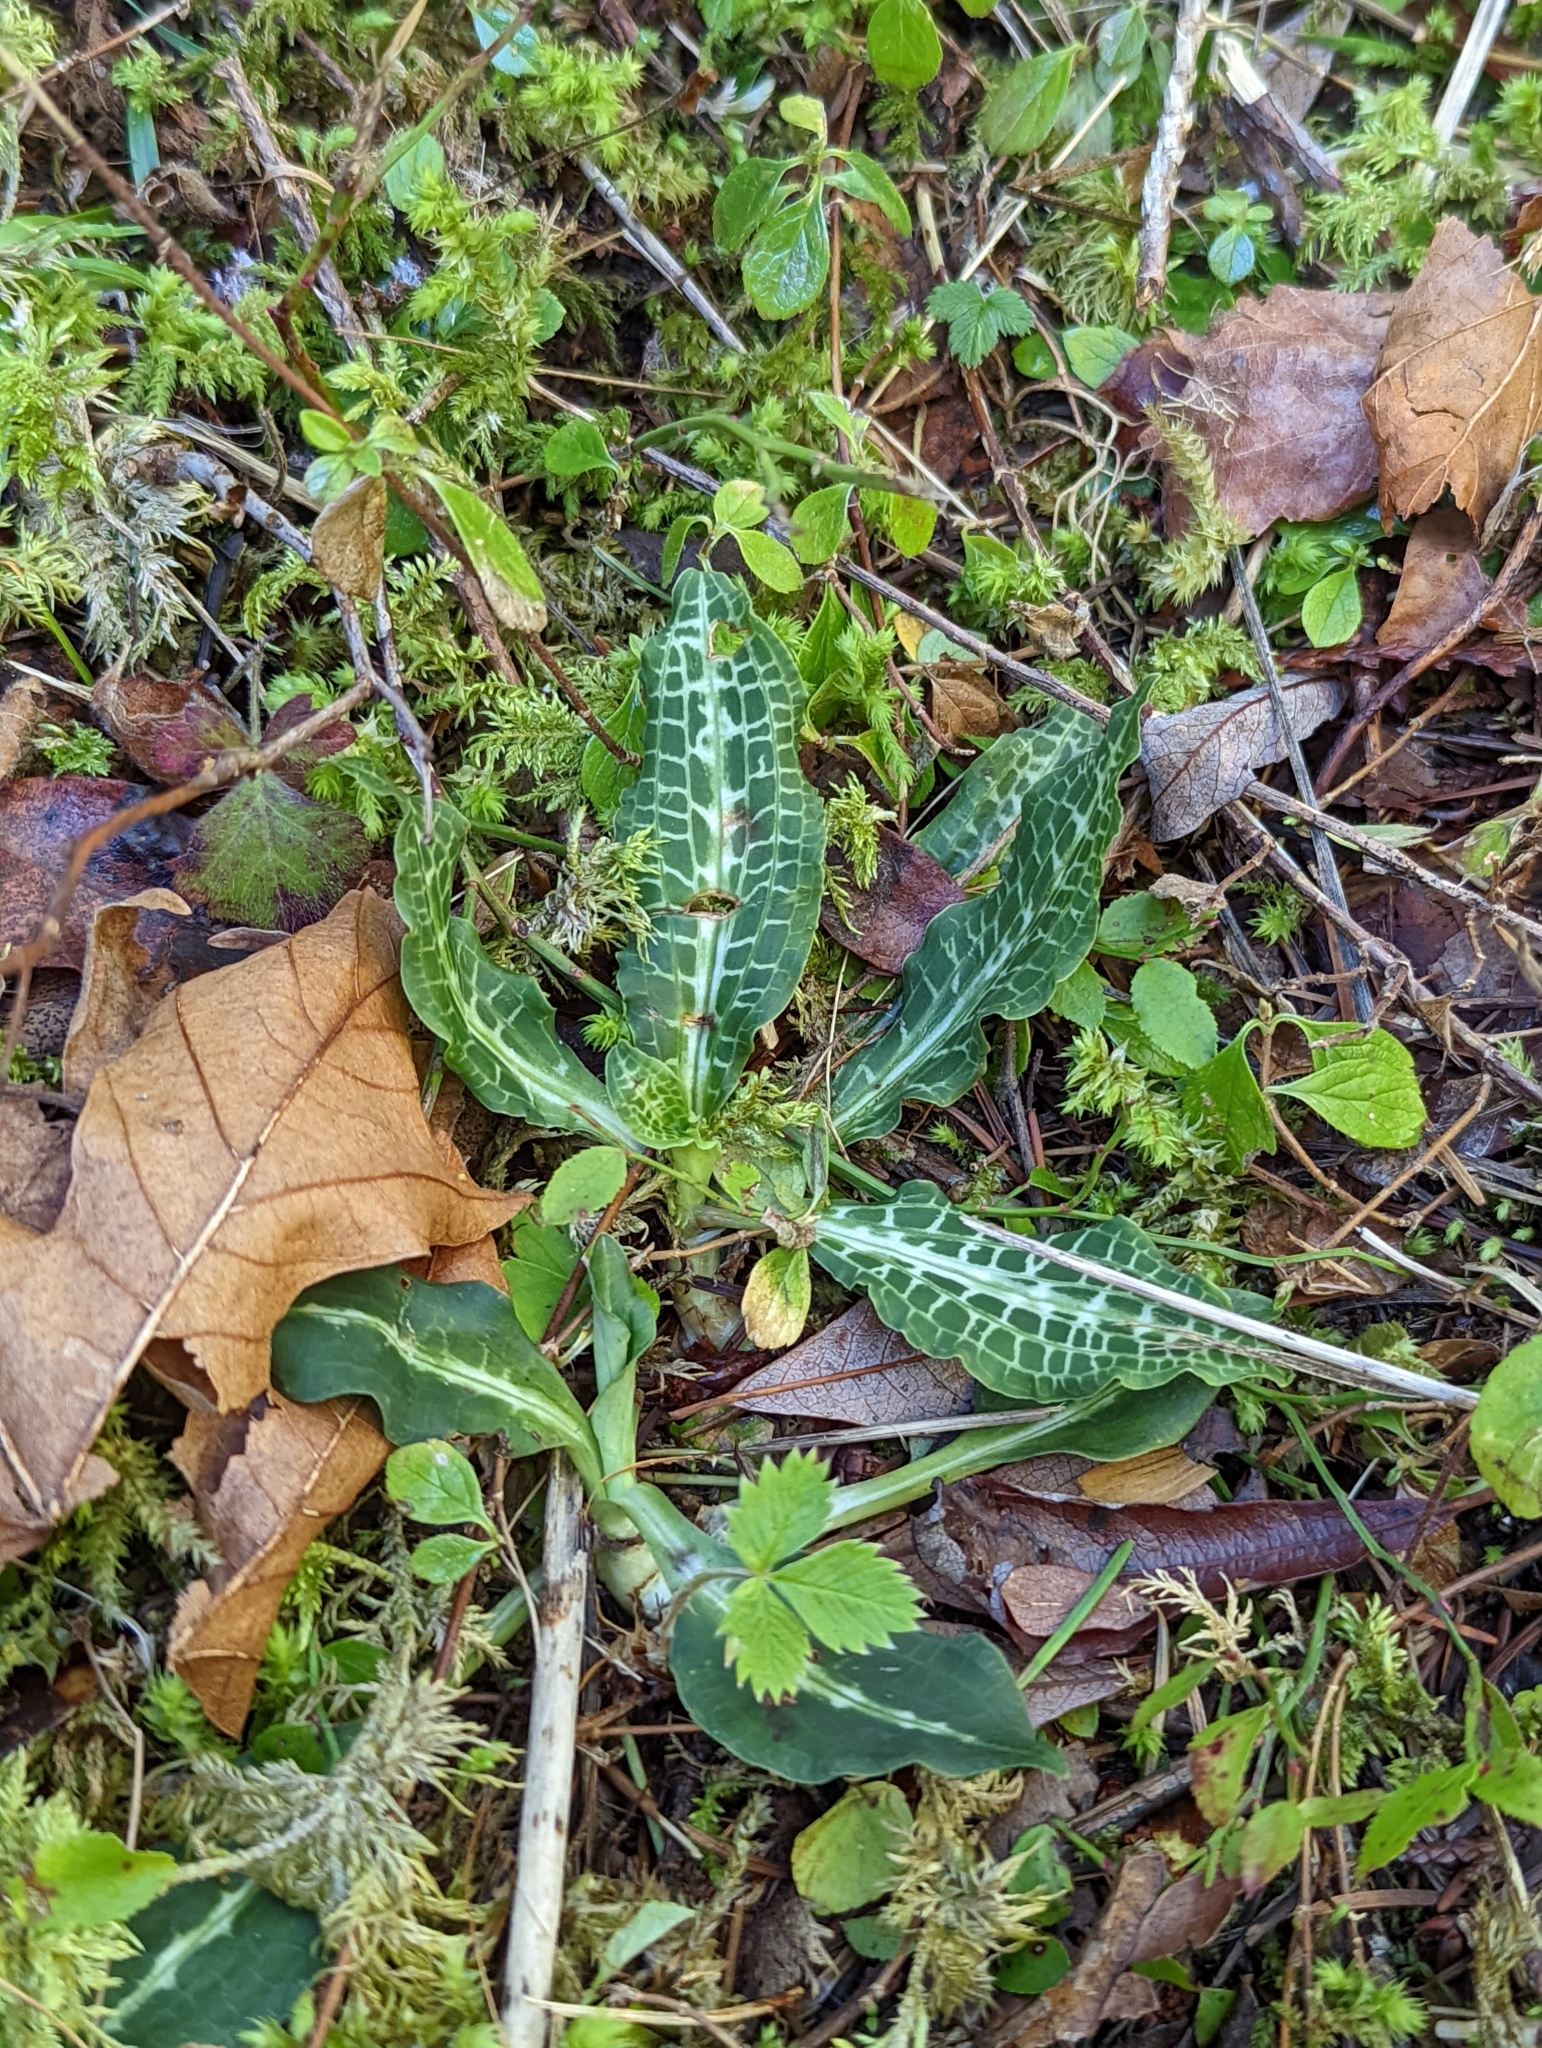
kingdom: Plantae
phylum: Tracheophyta
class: Liliopsida
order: Asparagales
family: Orchidaceae
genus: Goodyera
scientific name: Goodyera oblongifolia
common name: Giant rattlesnake-plantain
